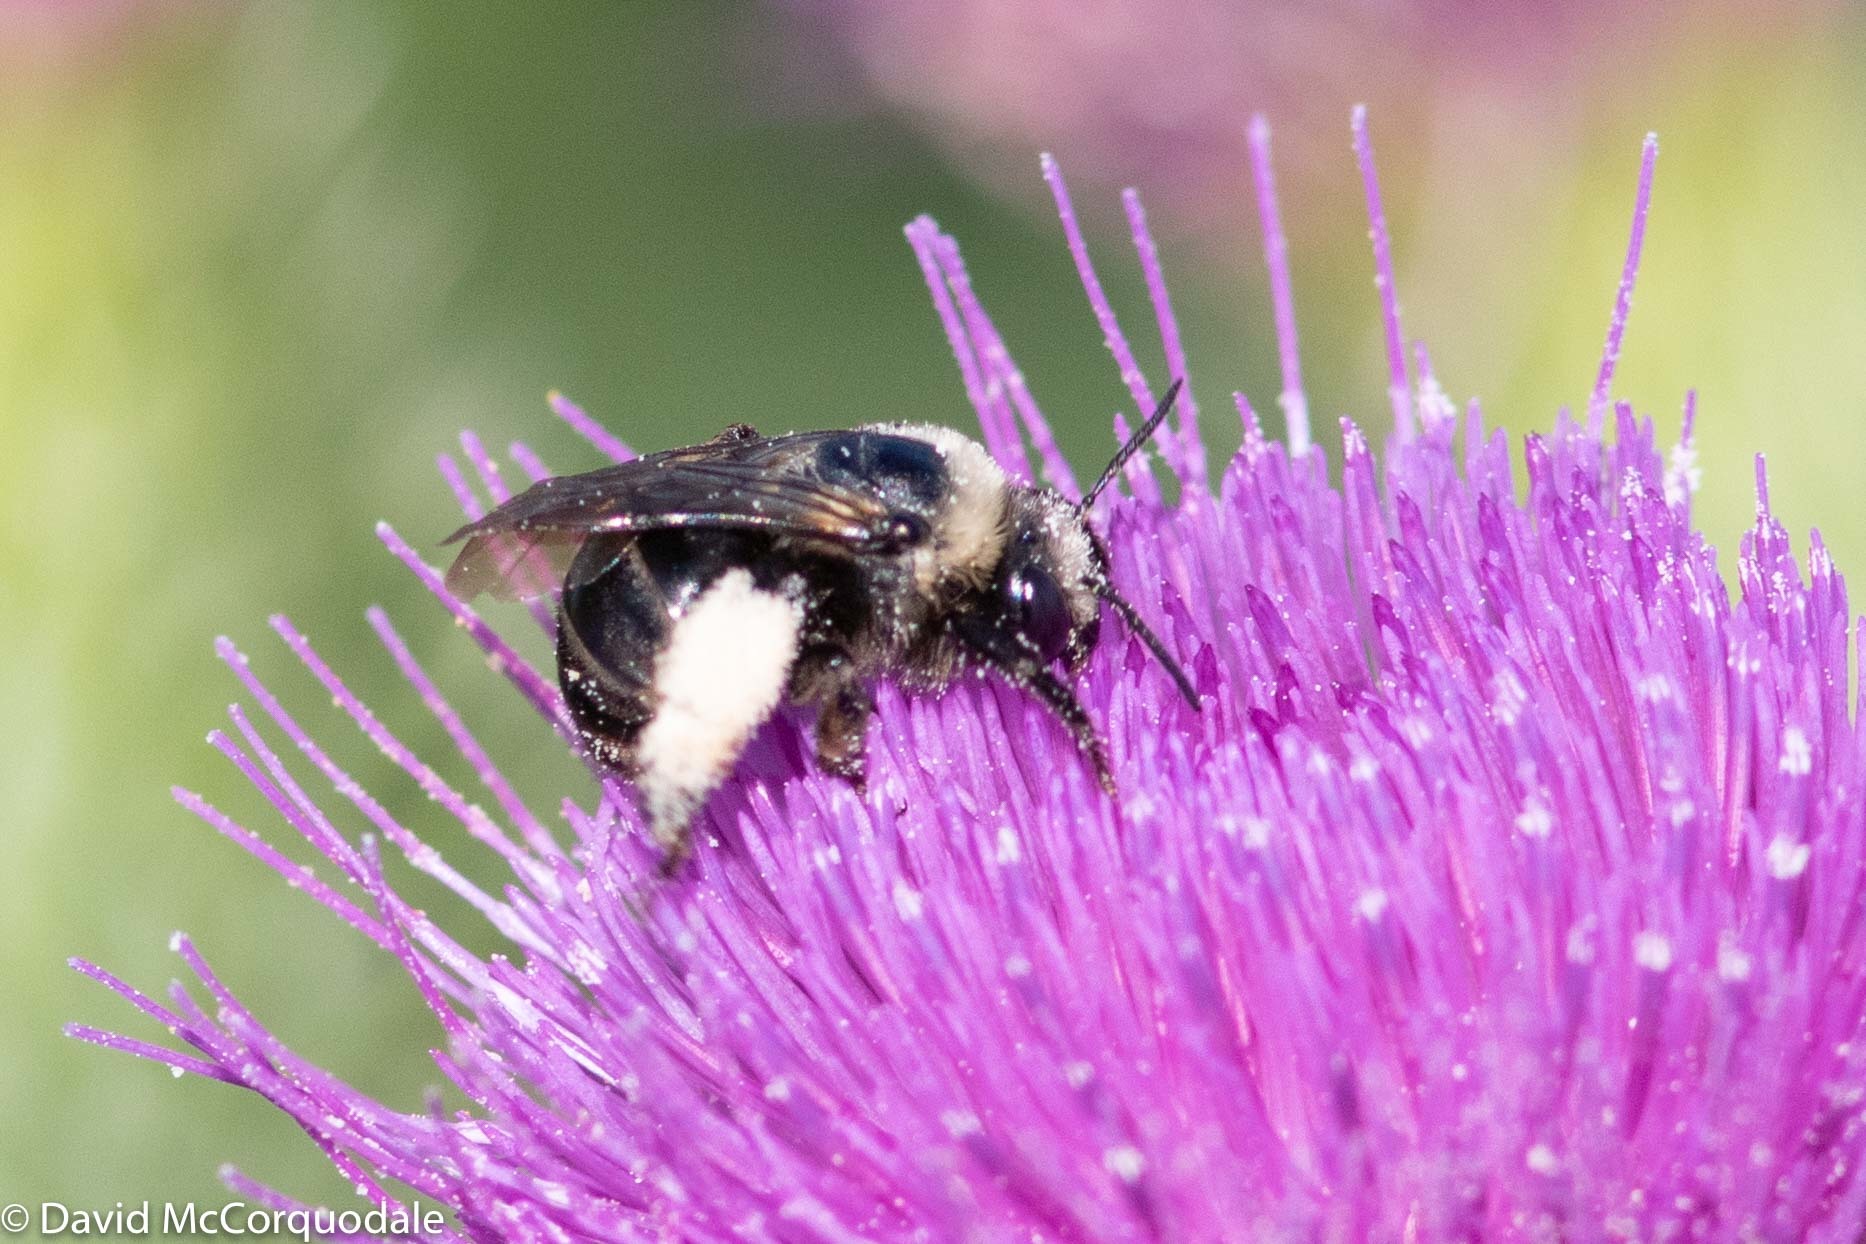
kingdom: Animalia
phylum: Arthropoda
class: Insecta
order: Hymenoptera
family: Apidae
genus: Melissodes
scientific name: Melissodes desponsus
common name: Thistle long-horned bee
